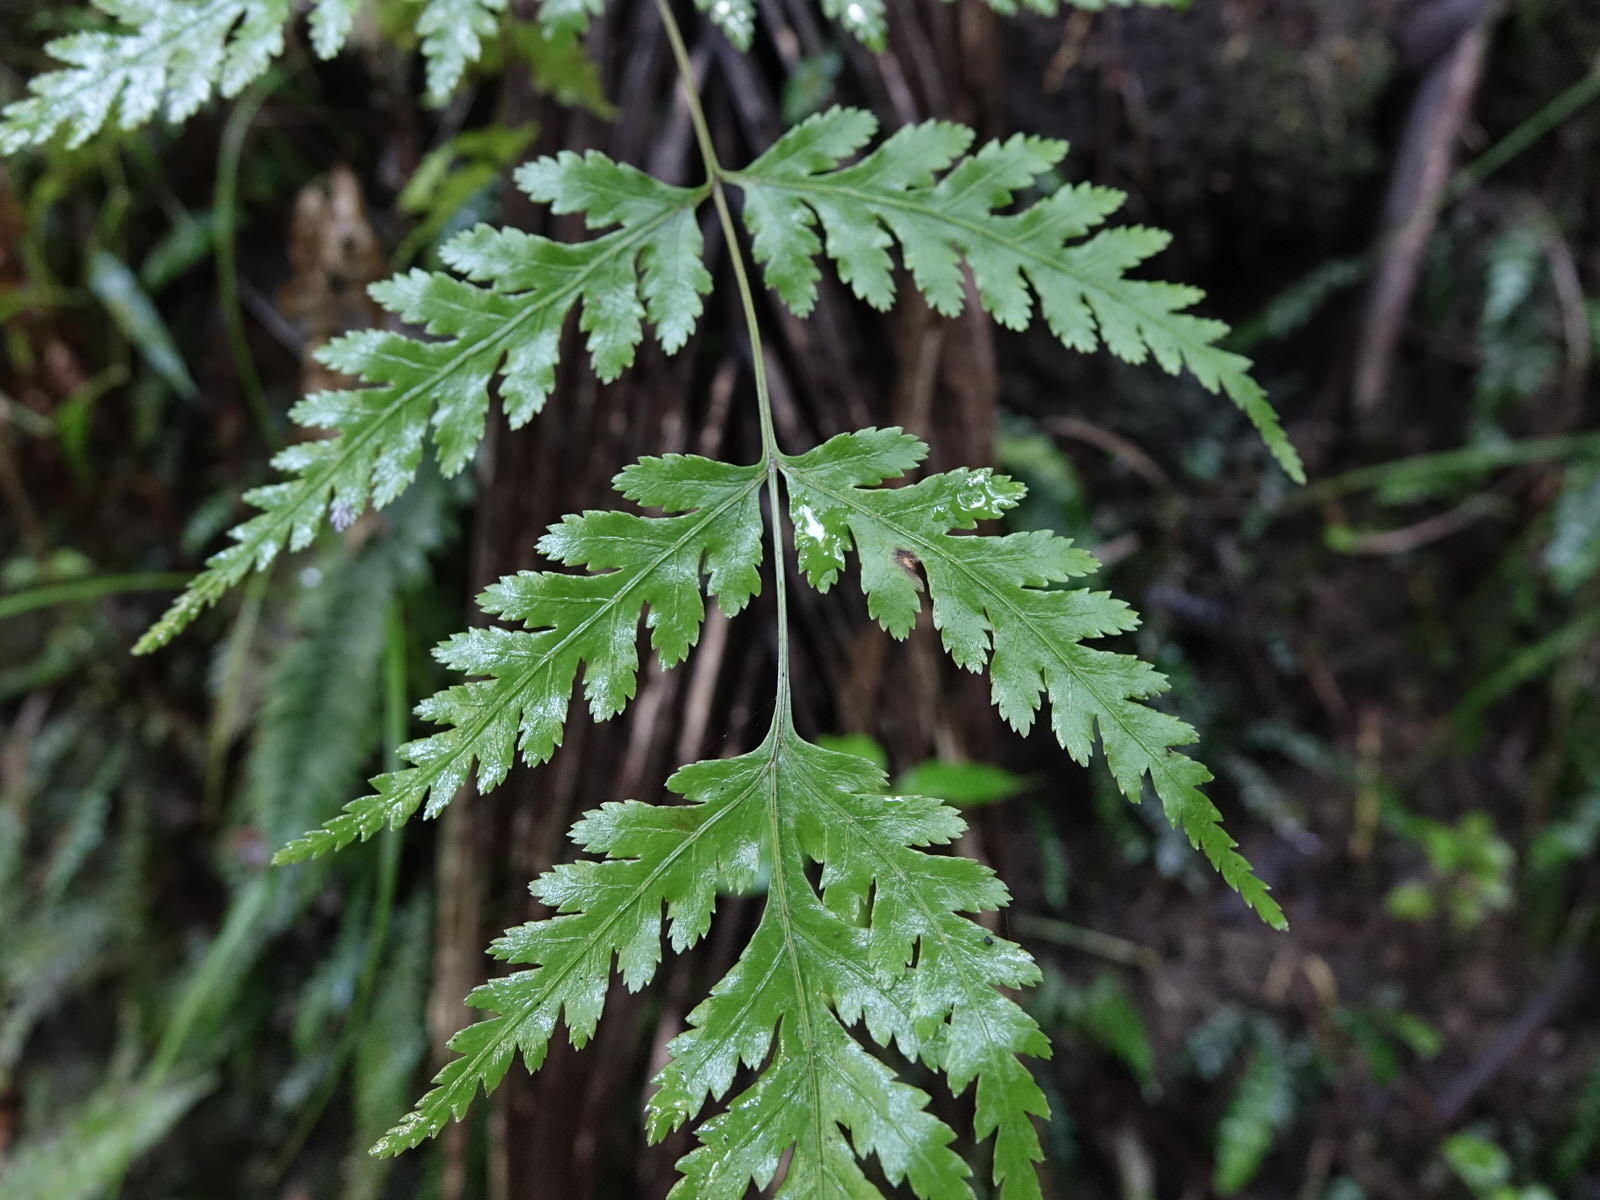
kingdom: Plantae
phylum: Tracheophyta
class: Polypodiopsida
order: Polypodiales
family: Pteridaceae
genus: Pteris
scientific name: Pteris macilenta
